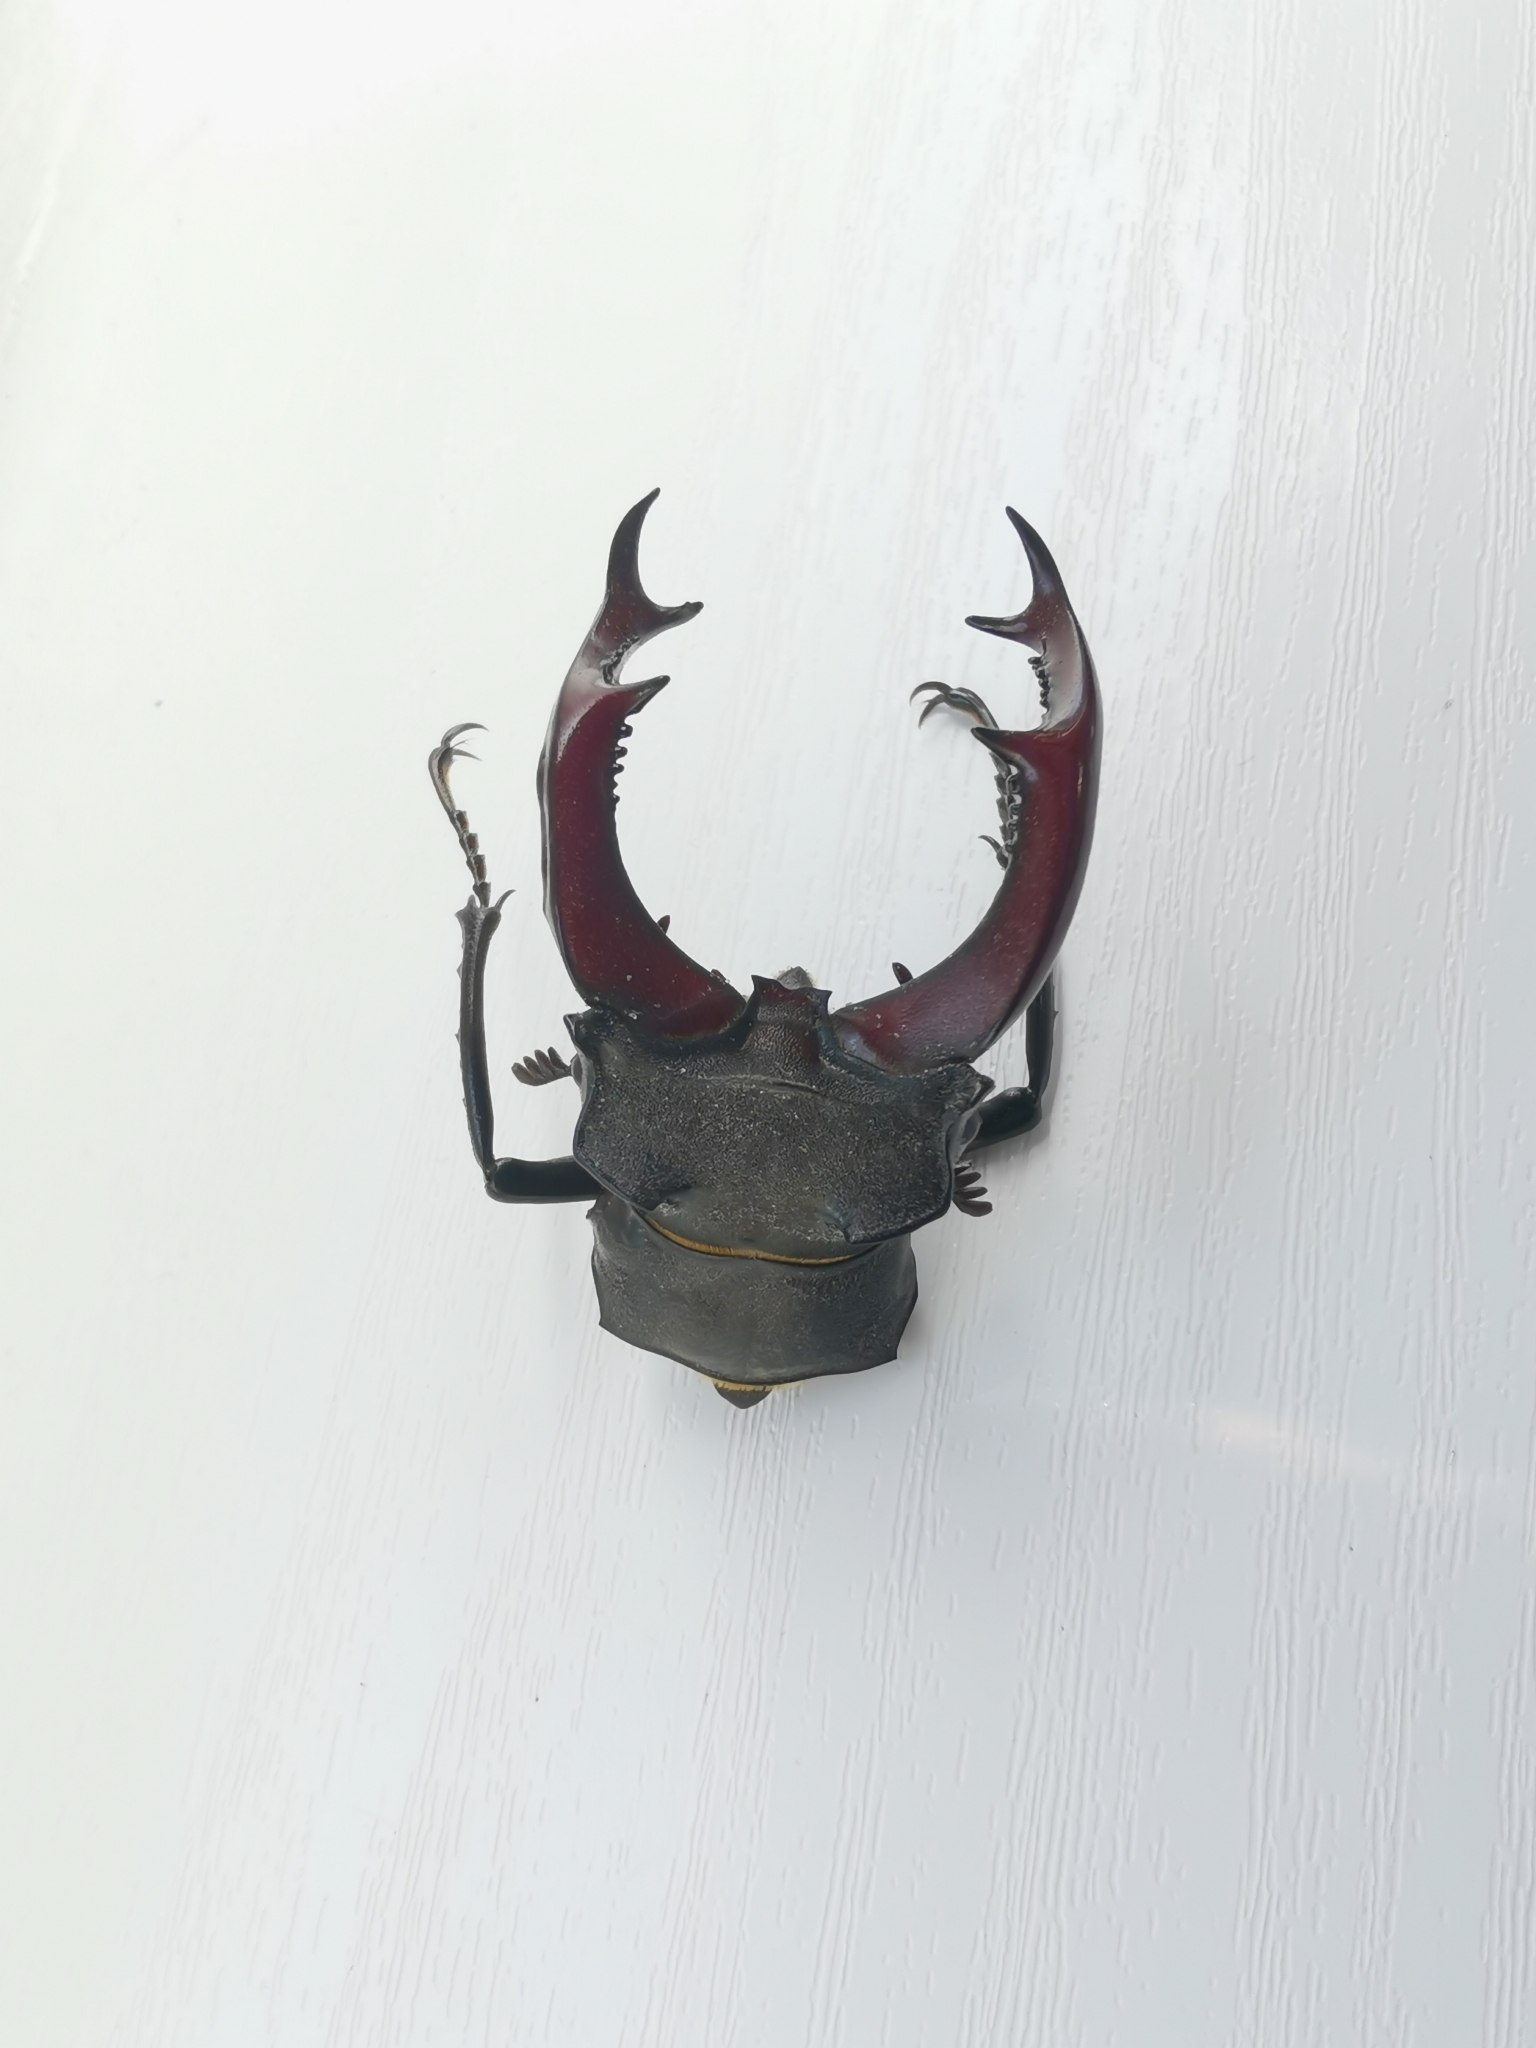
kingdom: Animalia
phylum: Arthropoda
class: Insecta
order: Coleoptera
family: Lucanidae
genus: Lucanus
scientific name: Lucanus cervus
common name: Stag beetle
